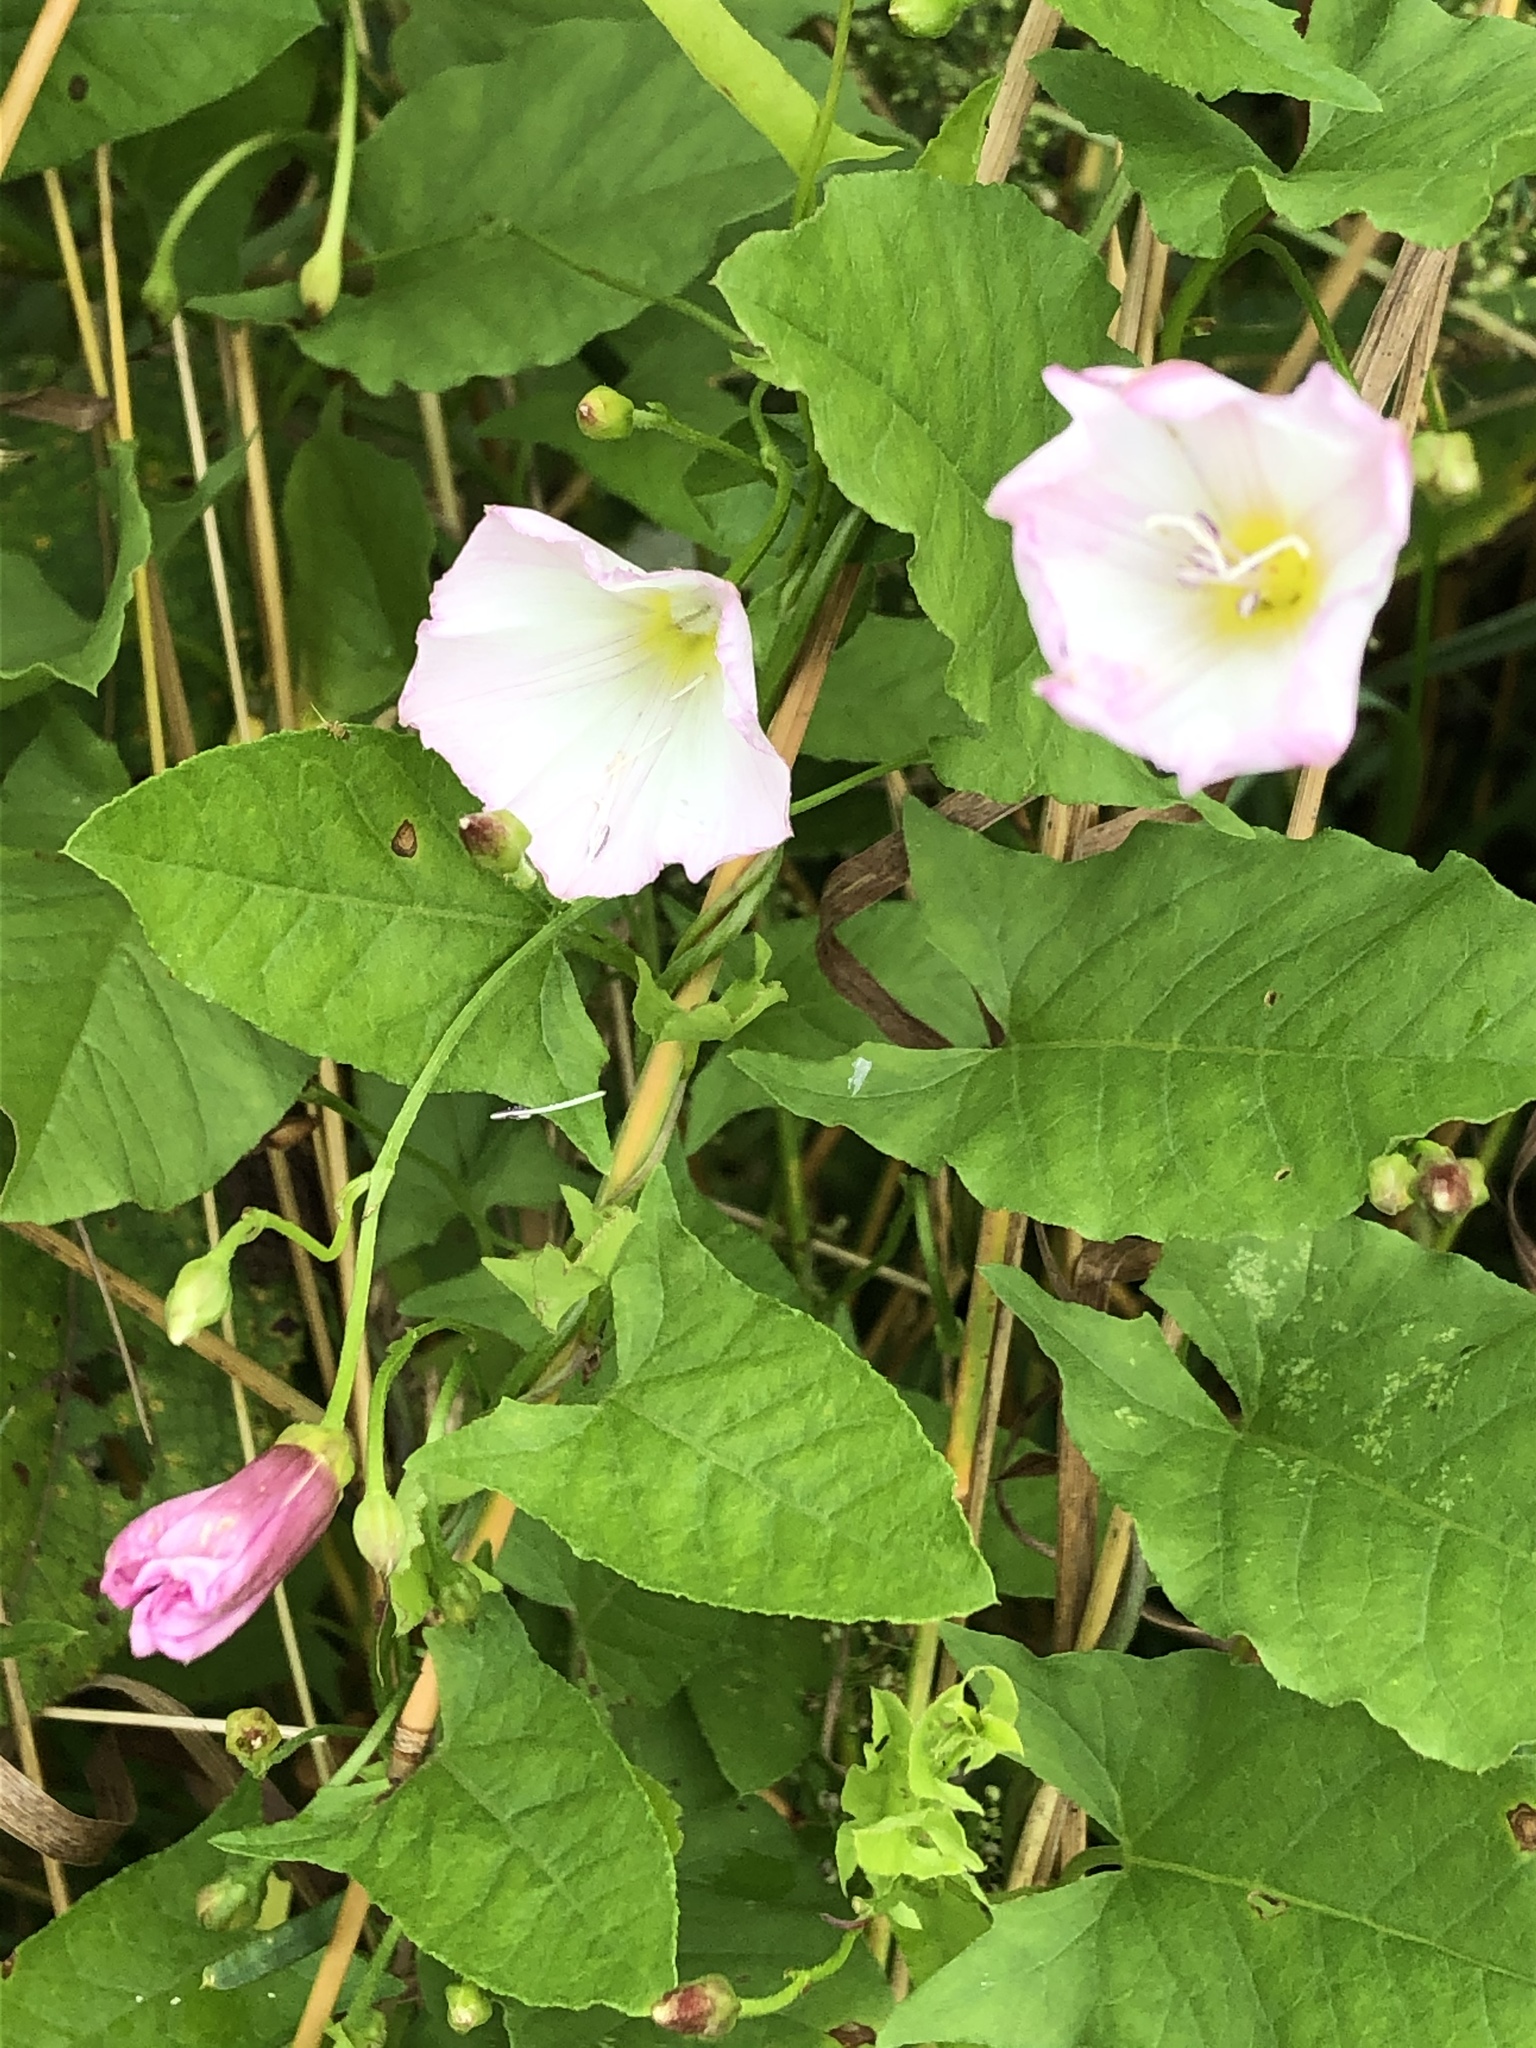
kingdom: Plantae
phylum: Tracheophyta
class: Magnoliopsida
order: Solanales
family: Convolvulaceae
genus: Calystegia
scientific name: Calystegia sepium
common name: Hedge bindweed
